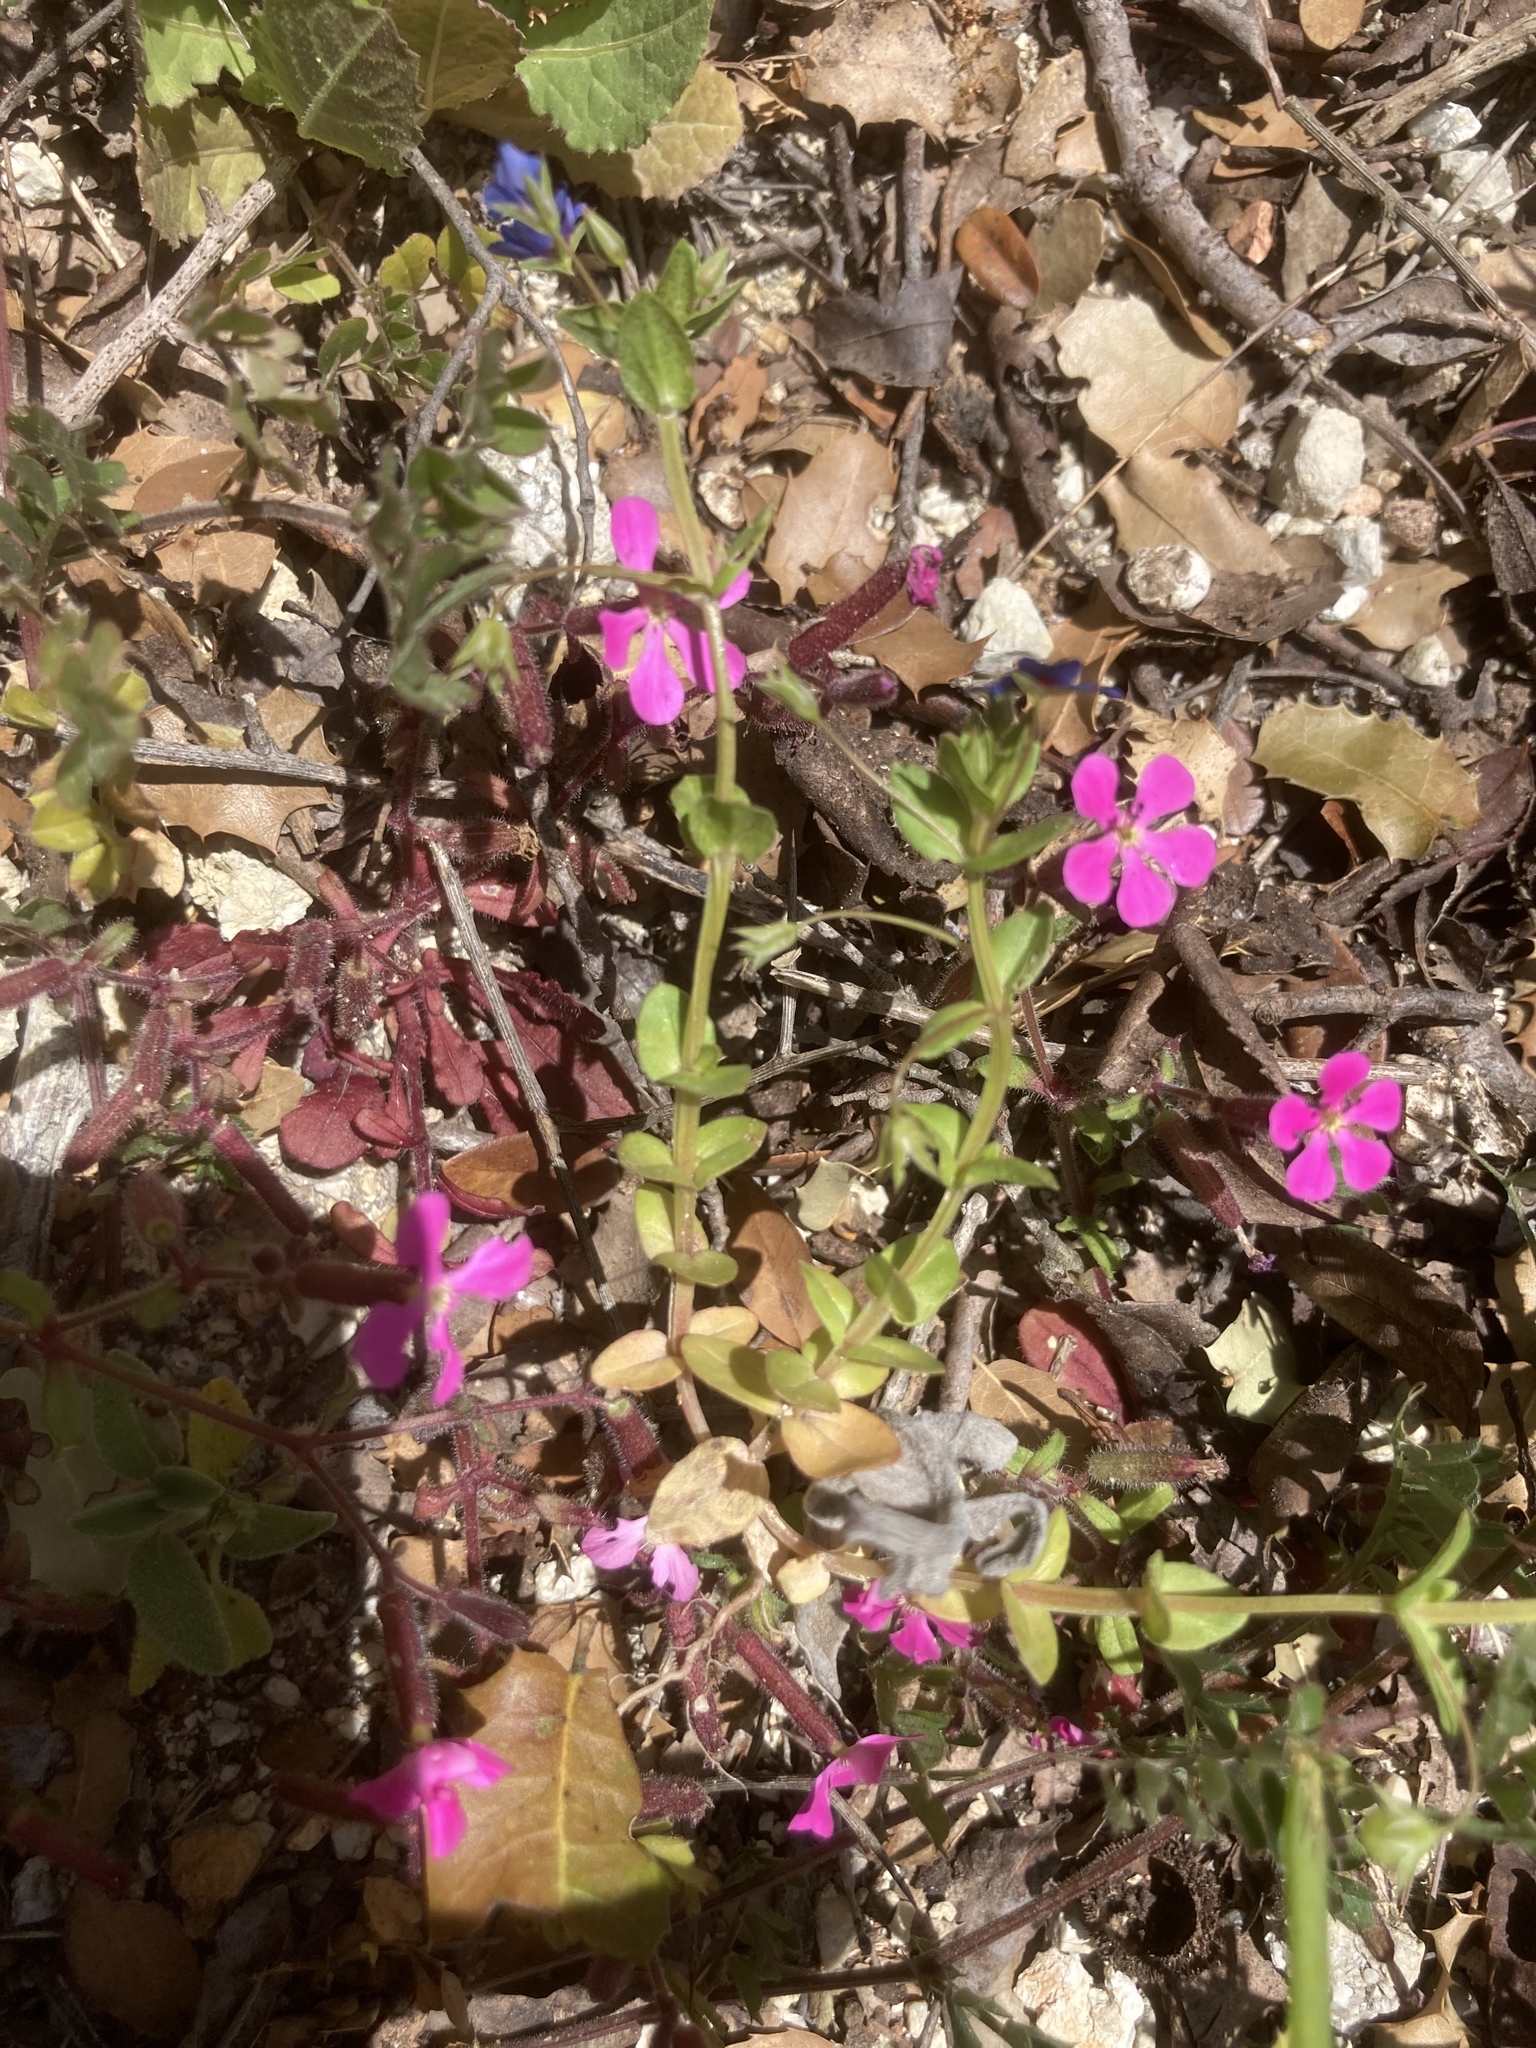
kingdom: Plantae
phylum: Tracheophyta
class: Magnoliopsida
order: Caryophyllales
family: Caryophyllaceae
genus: Saponaria
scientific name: Saponaria calabrica
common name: Adriatic soapwort
